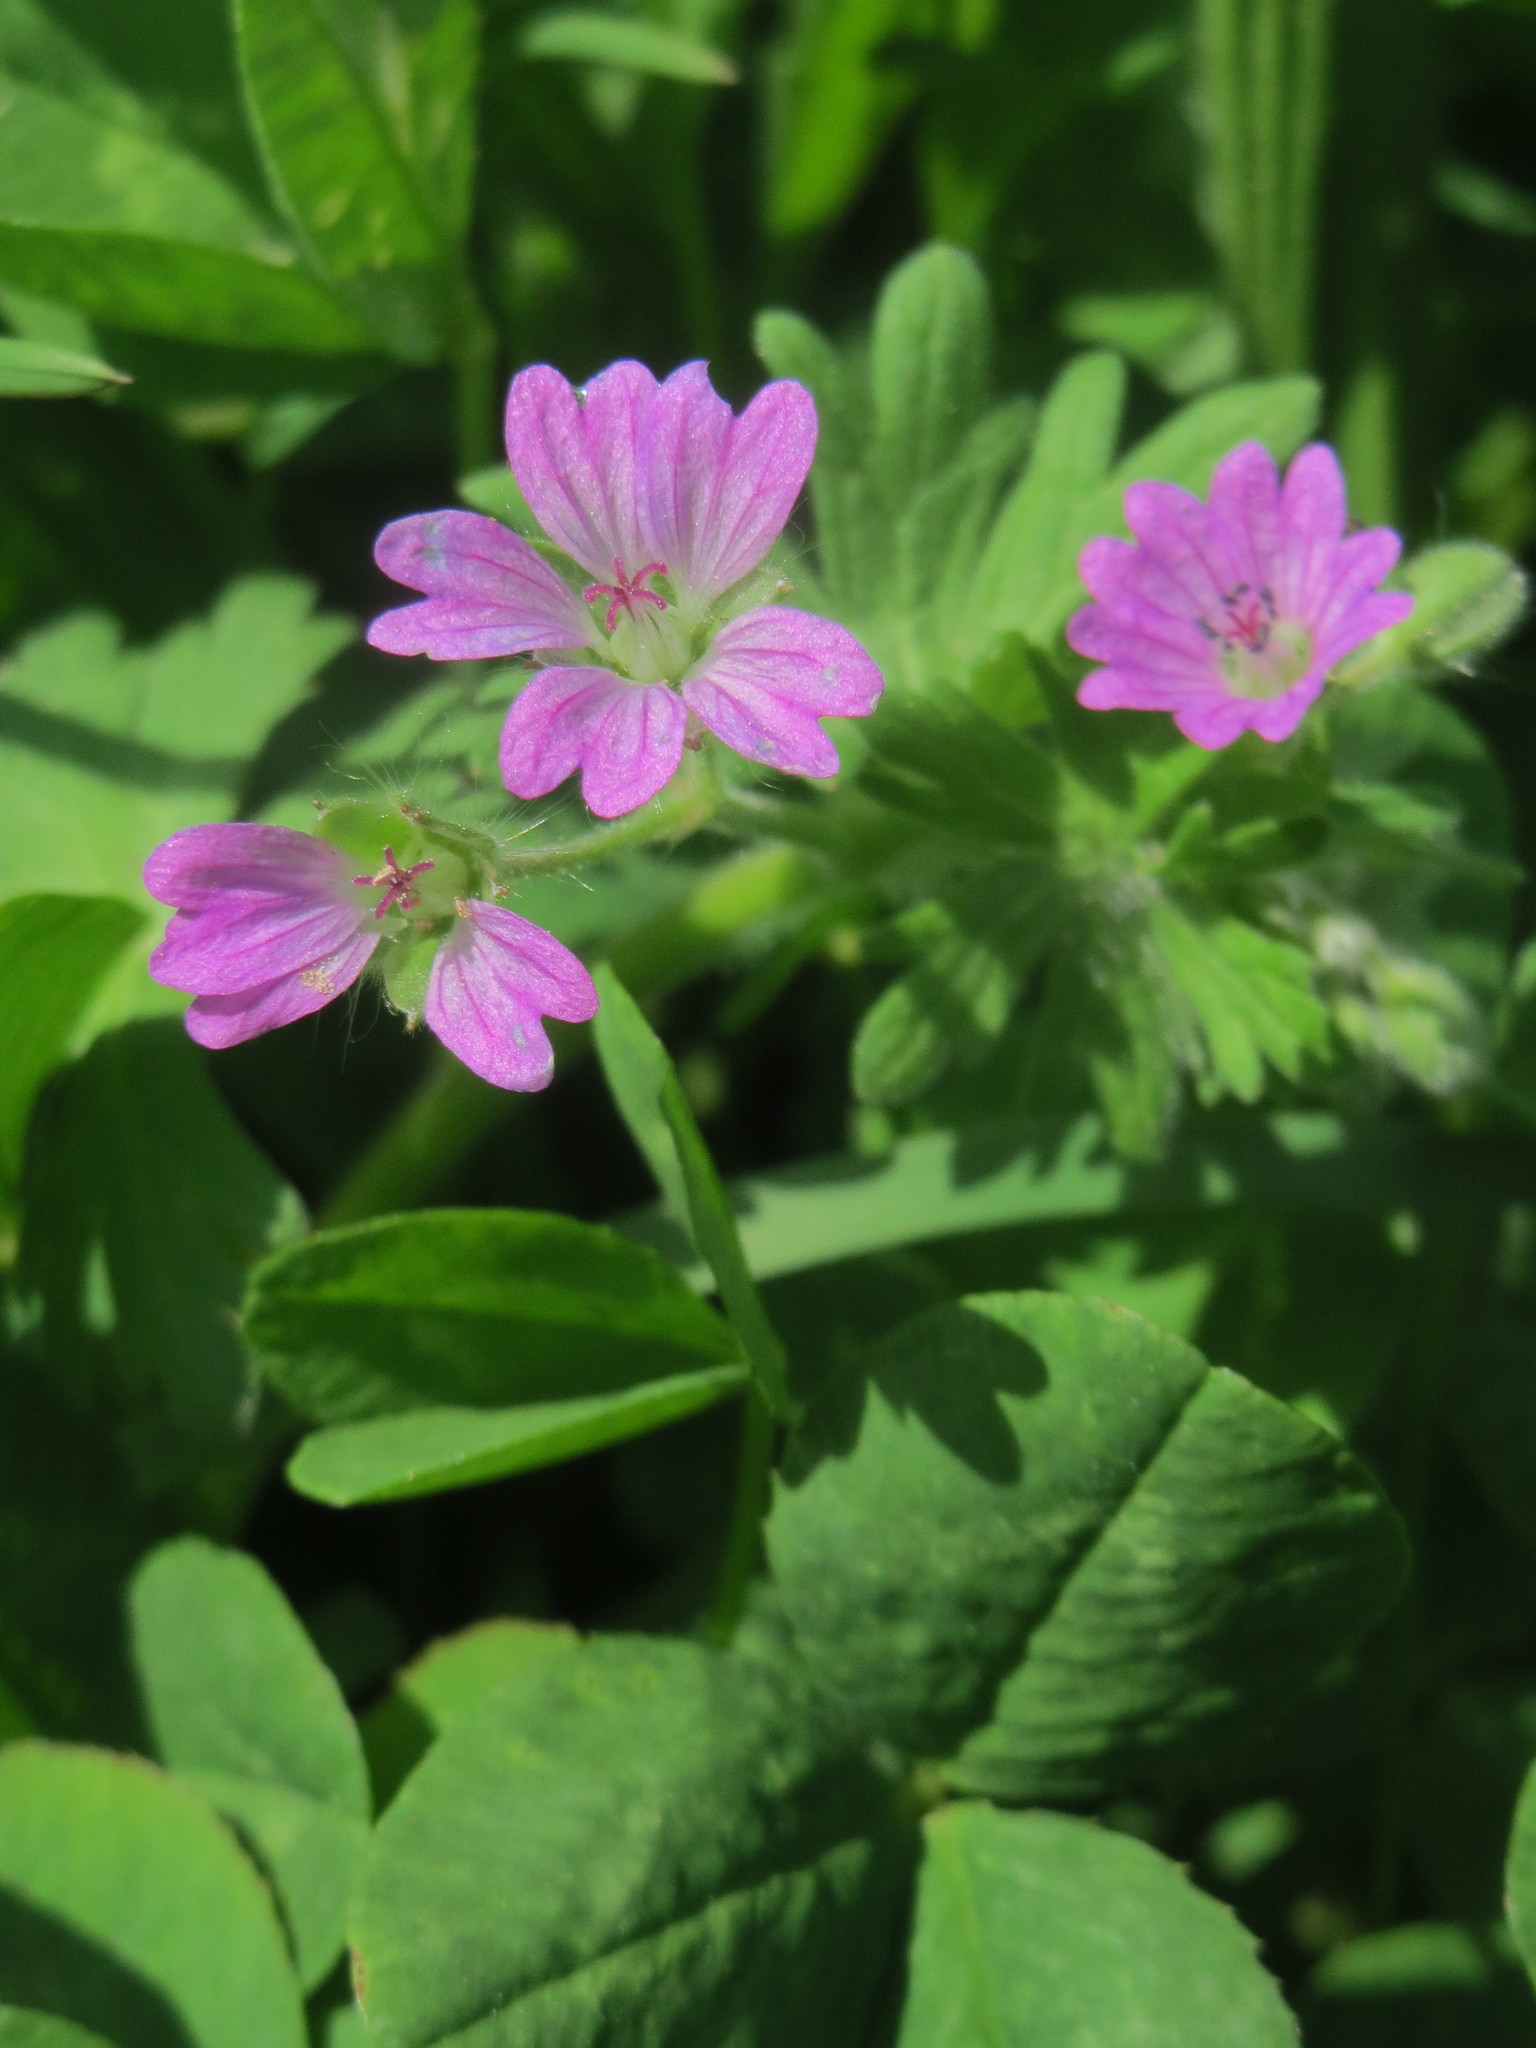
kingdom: Plantae
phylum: Tracheophyta
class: Magnoliopsida
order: Geraniales
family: Geraniaceae
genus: Geranium
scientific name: Geranium molle
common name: Dove's-foot crane's-bill
